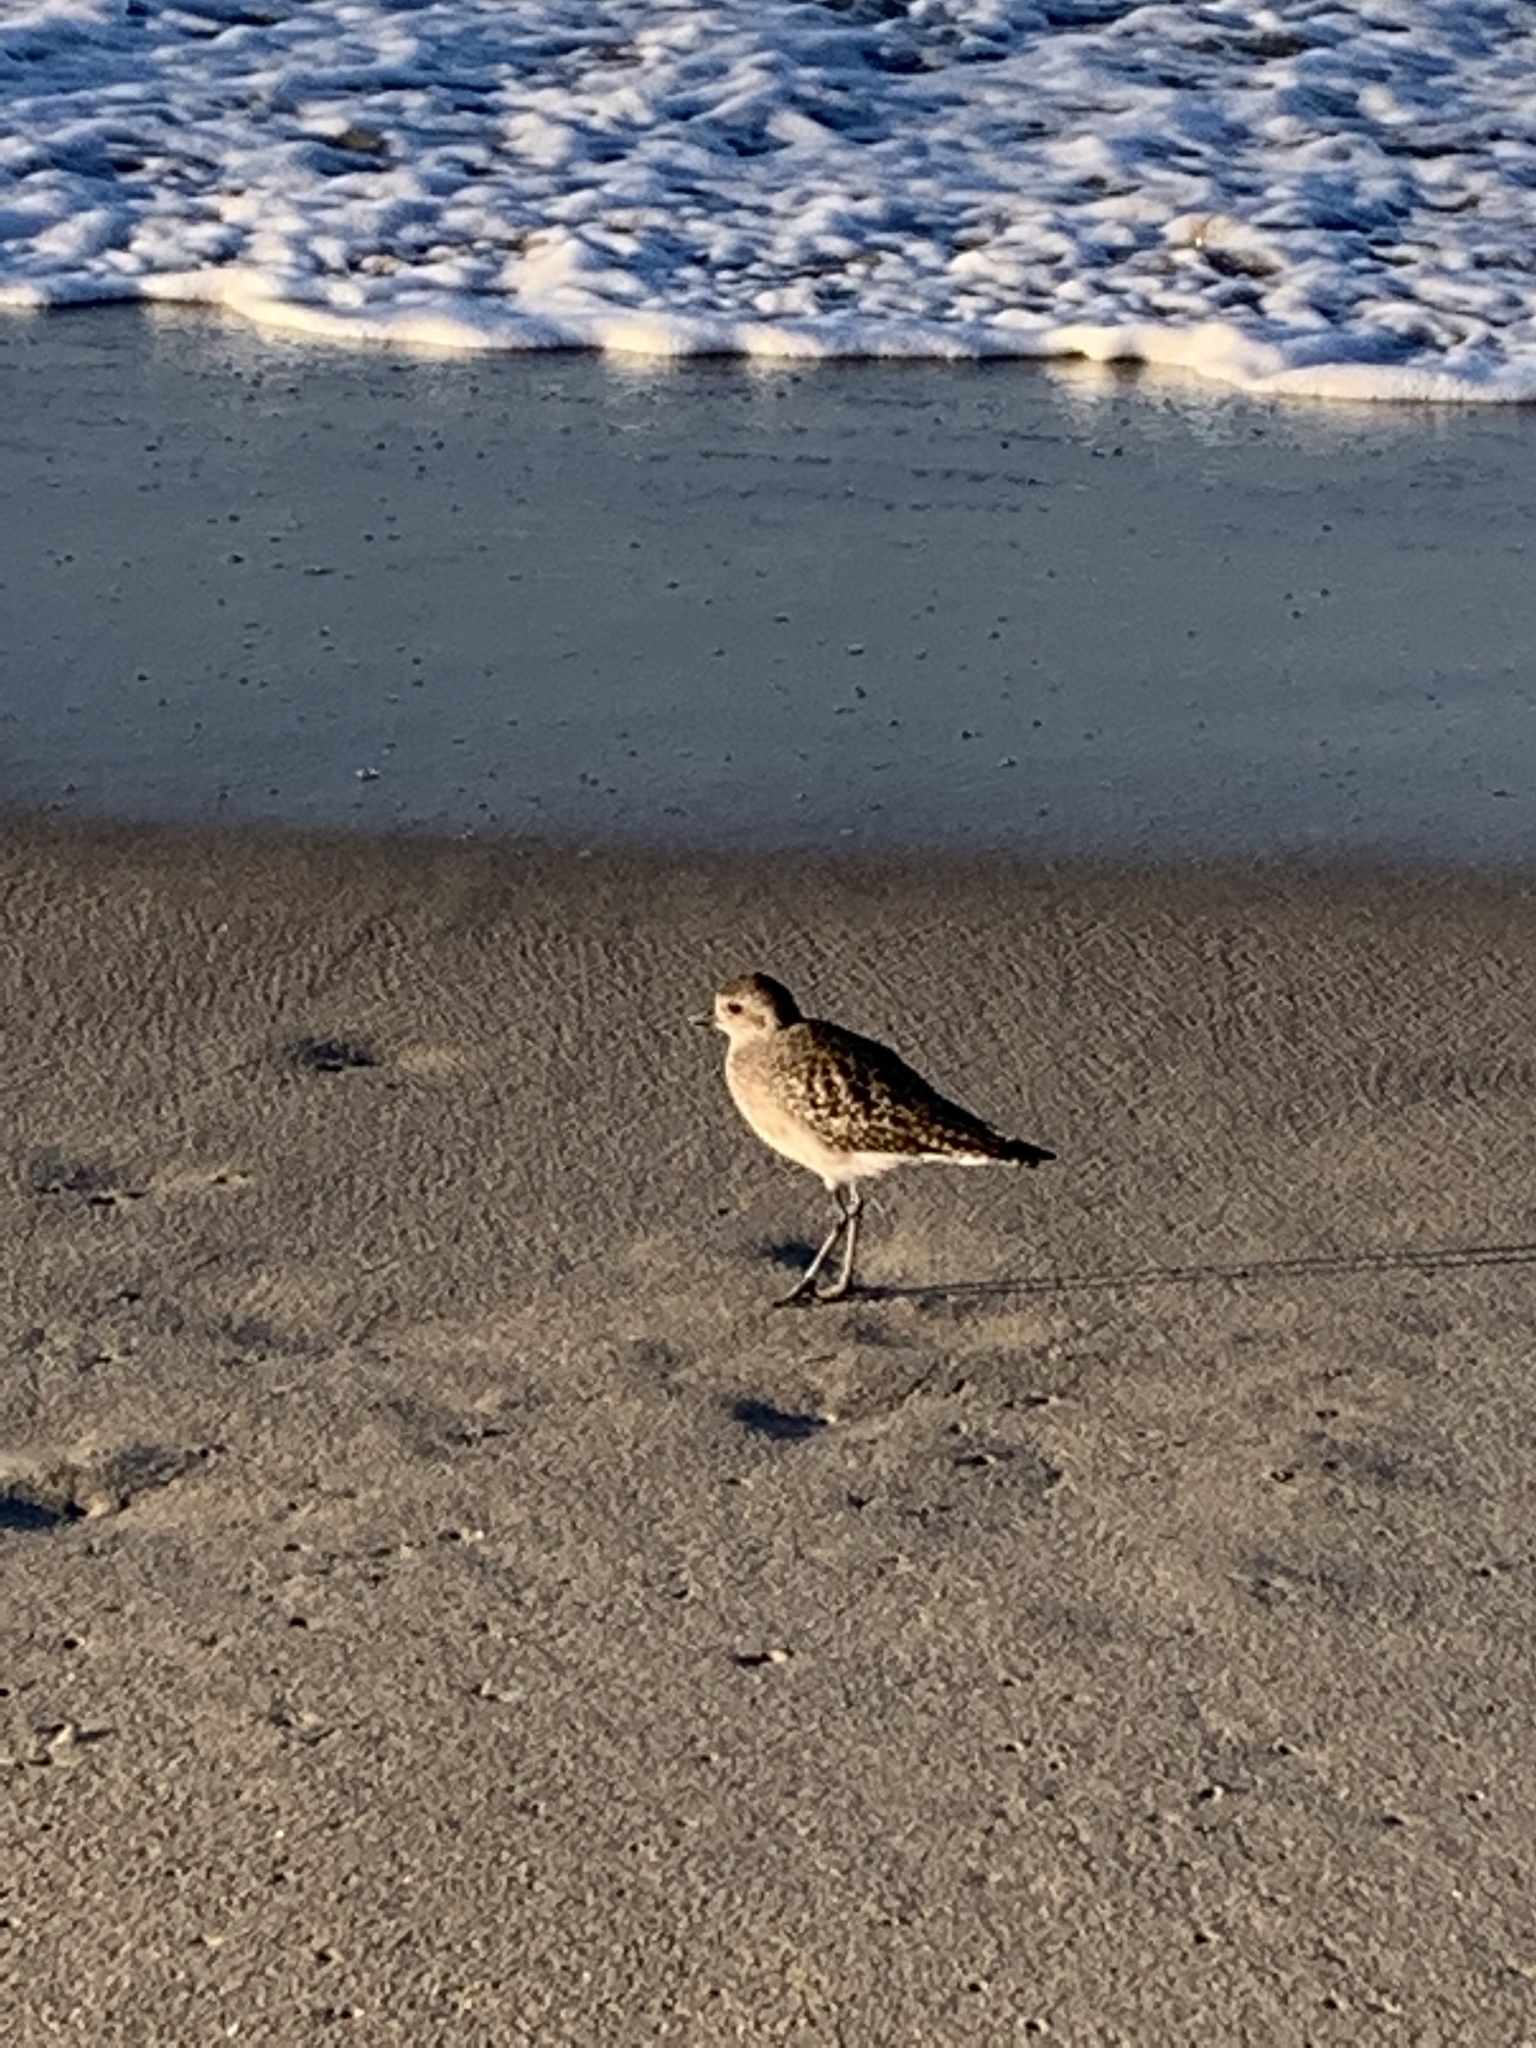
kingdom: Animalia
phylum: Chordata
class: Aves
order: Charadriiformes
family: Charadriidae
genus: Pluvialis
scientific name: Pluvialis fulva
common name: Pacific golden plover
